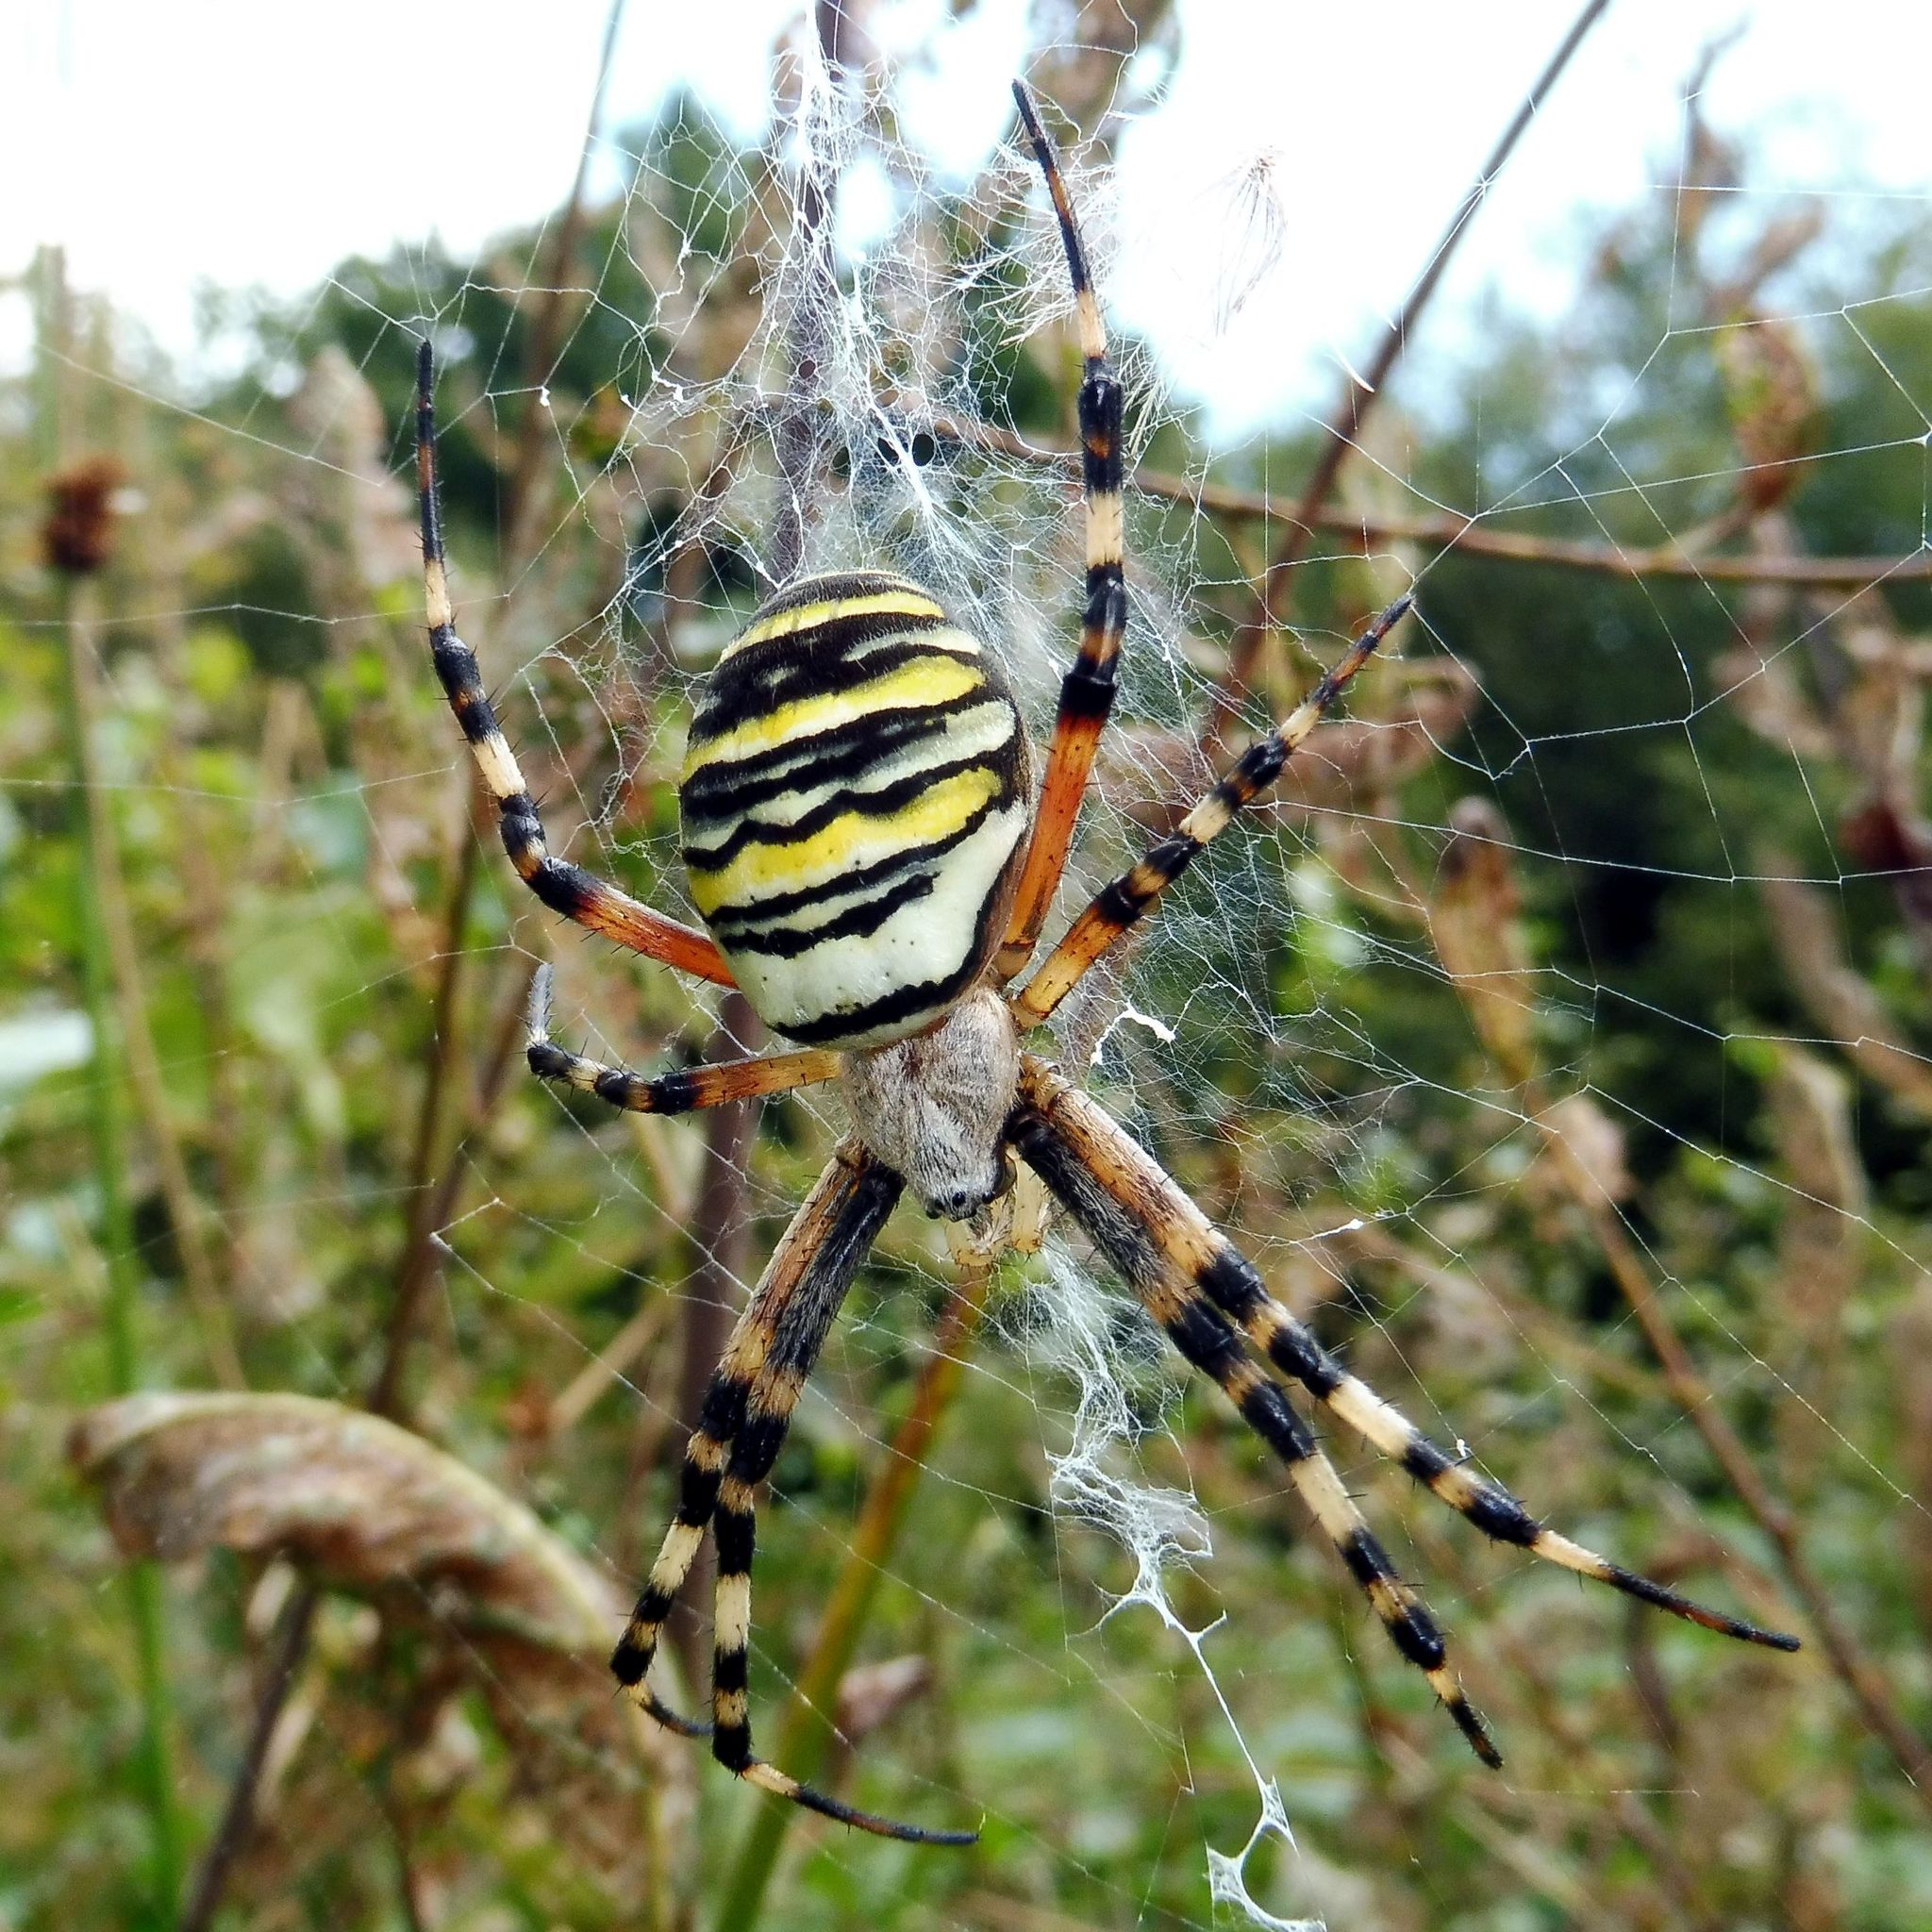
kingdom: Animalia
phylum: Arthropoda
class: Arachnida
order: Araneae
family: Araneidae
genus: Argiope
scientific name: Argiope bruennichi
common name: Wasp spider
